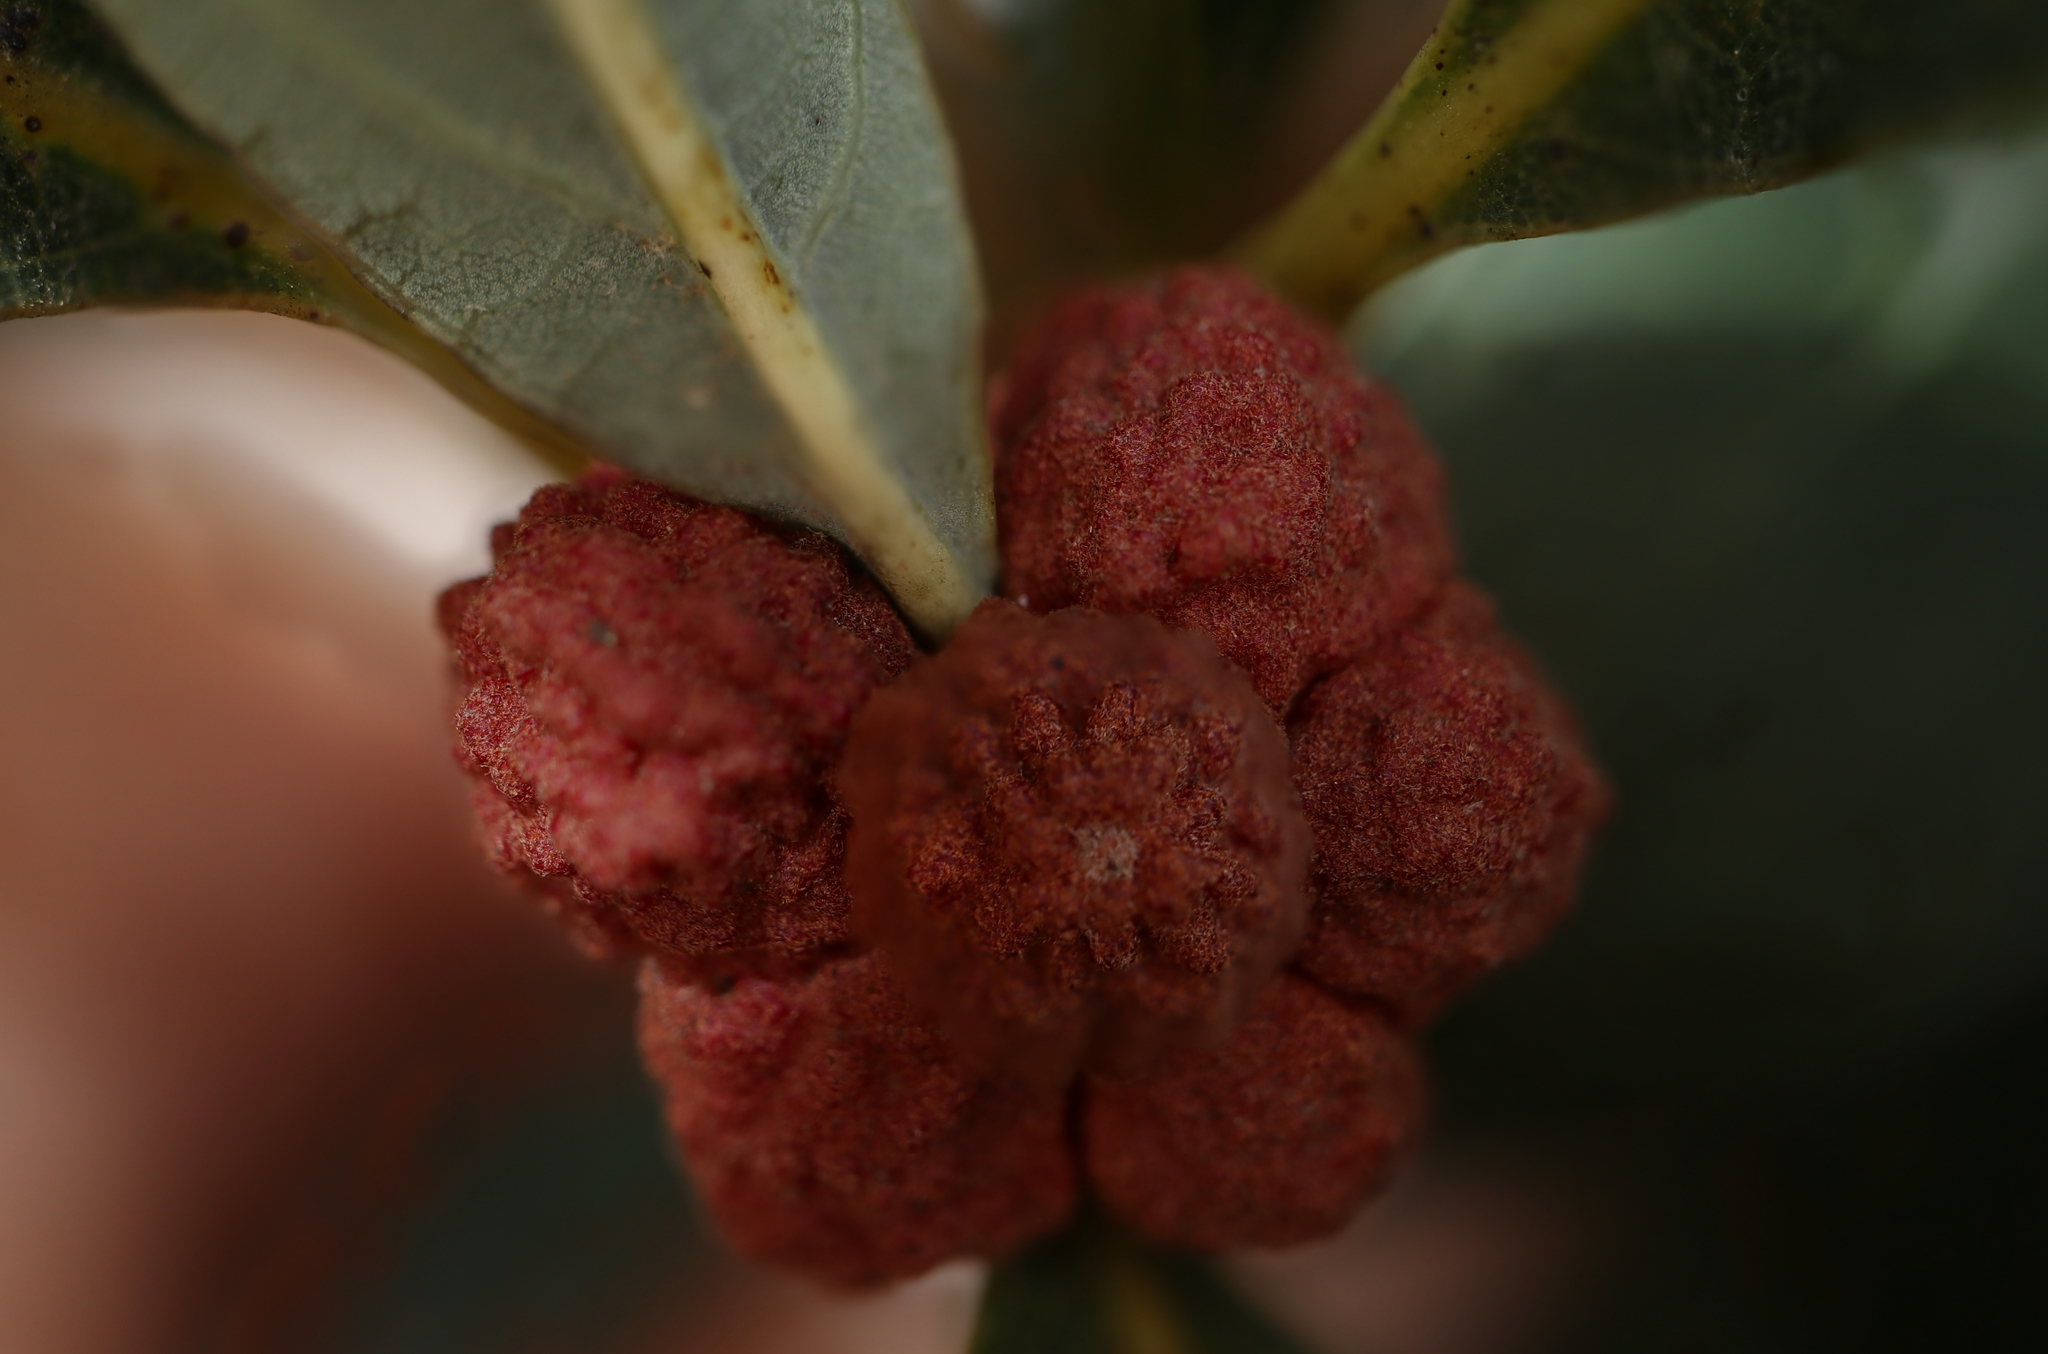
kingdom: Animalia
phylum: Arthropoda
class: Insecta
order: Hymenoptera
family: Cynipidae
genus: Andricus
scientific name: Andricus
